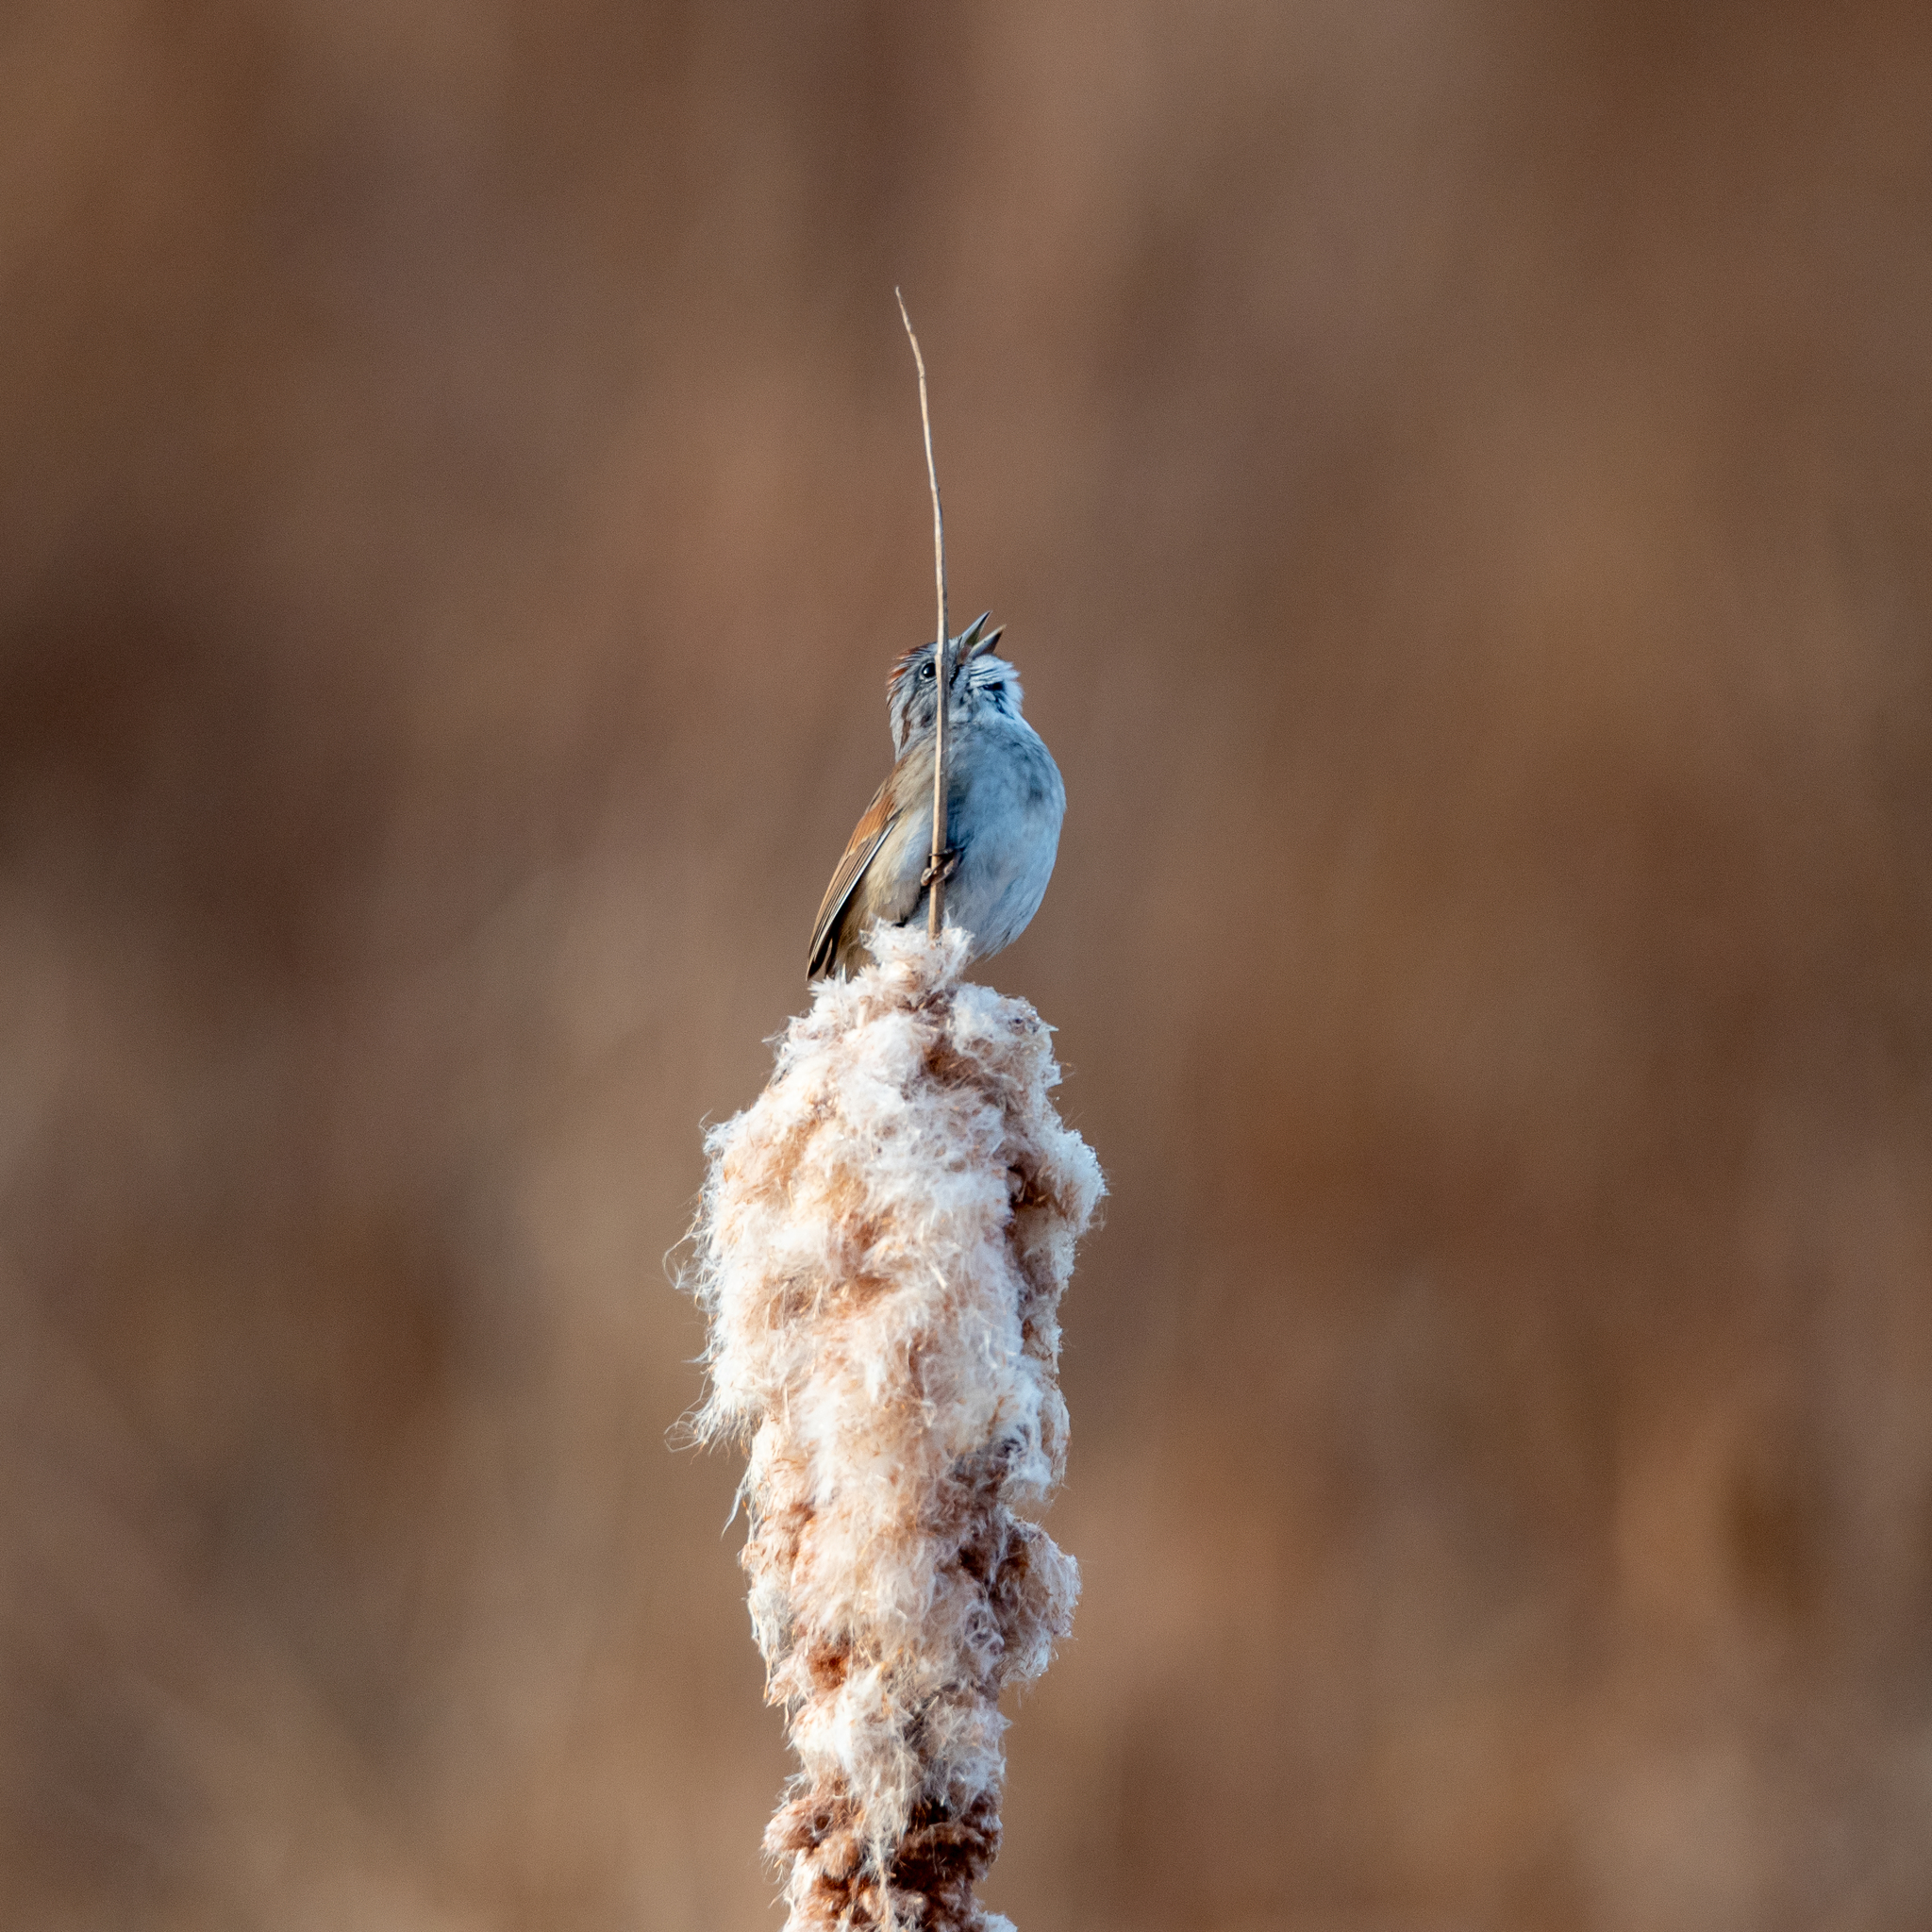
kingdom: Animalia
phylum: Chordata
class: Aves
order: Passeriformes
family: Passerellidae
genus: Melospiza
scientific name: Melospiza georgiana
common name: Swamp sparrow
